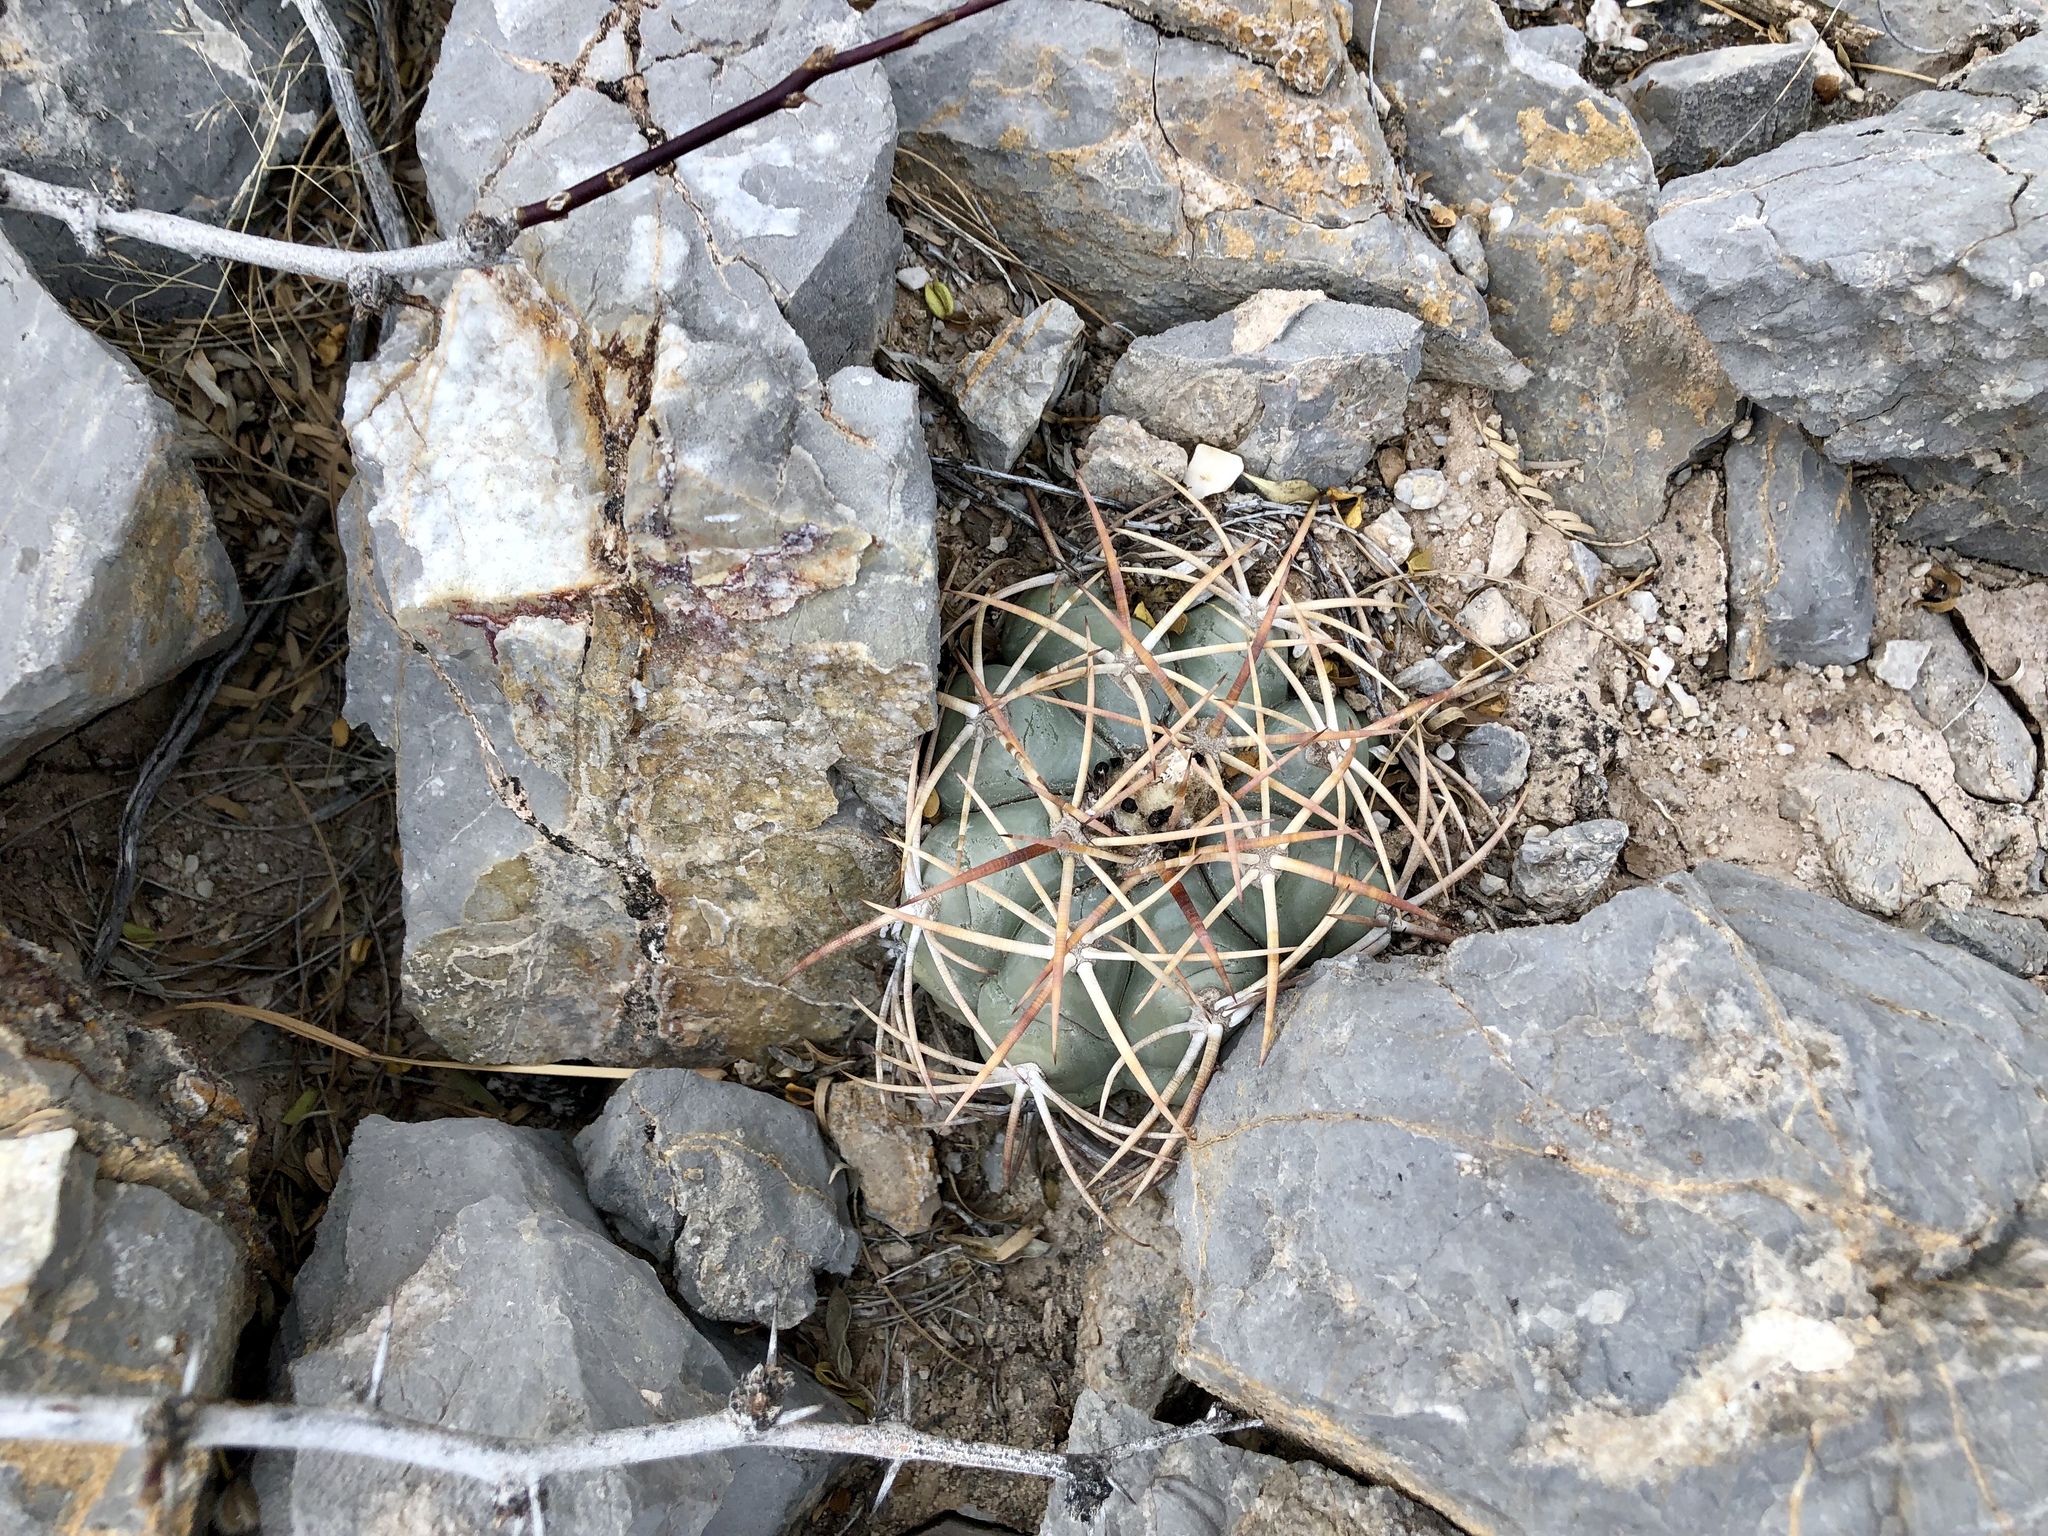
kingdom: Plantae
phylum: Tracheophyta
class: Magnoliopsida
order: Caryophyllales
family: Cactaceae
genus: Echinocactus
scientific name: Echinocactus horizonthalonius
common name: Devilshead
